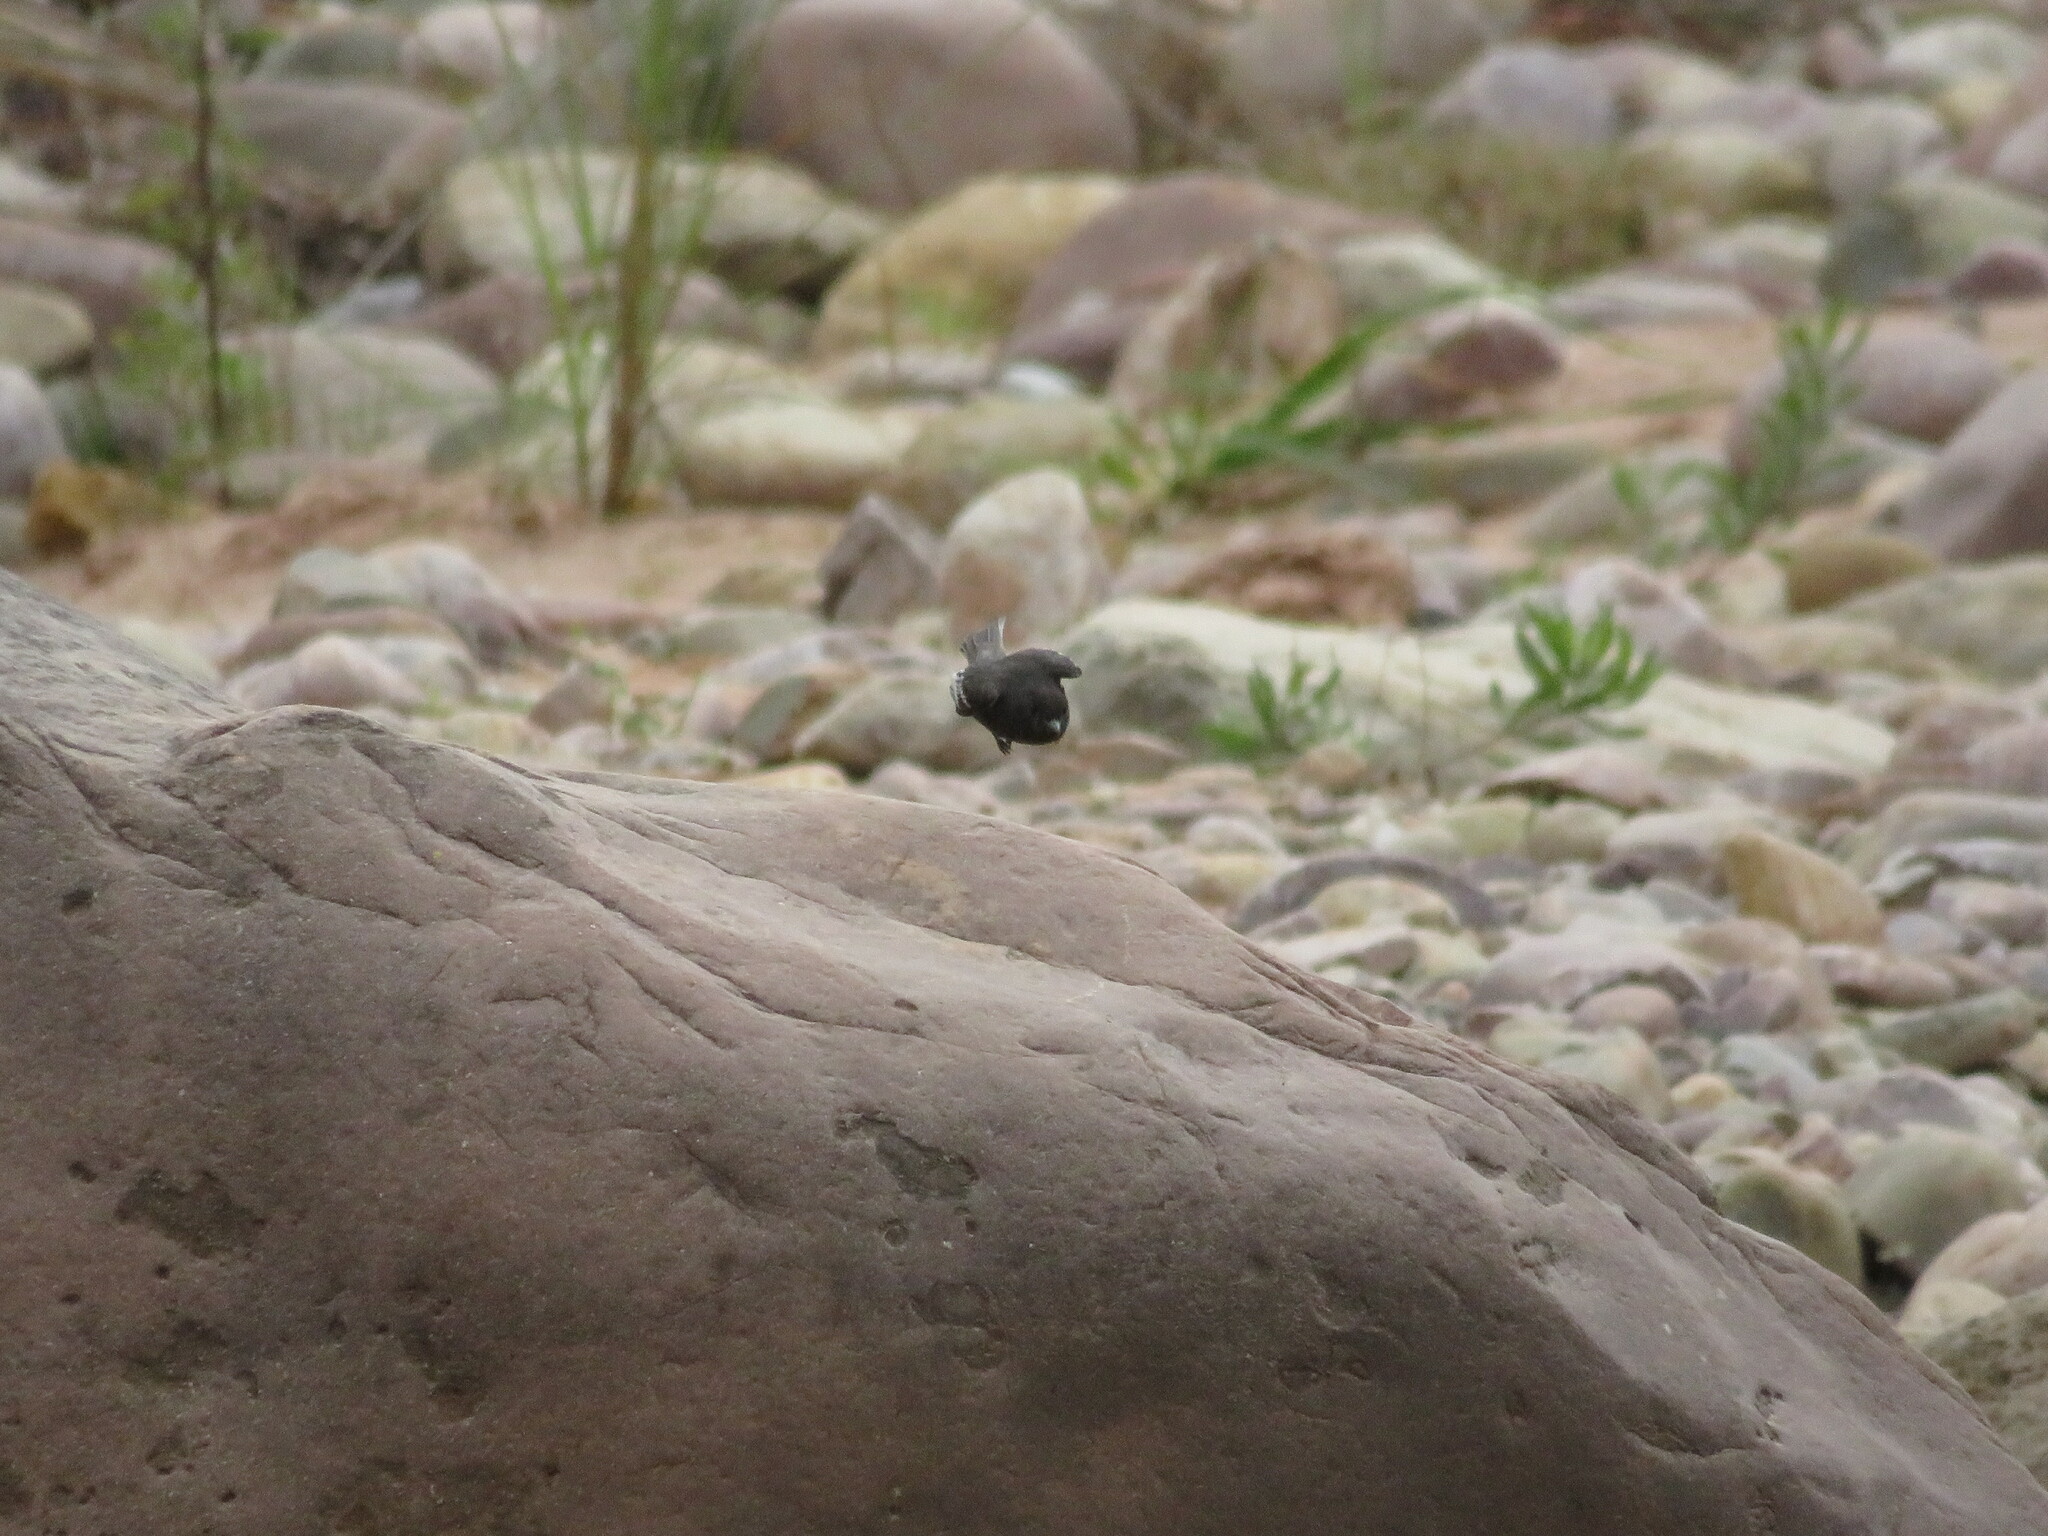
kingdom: Animalia
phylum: Chordata
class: Aves
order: Passeriformes
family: Tyrannidae
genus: Sayornis
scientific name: Sayornis nigricans
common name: Black phoebe
